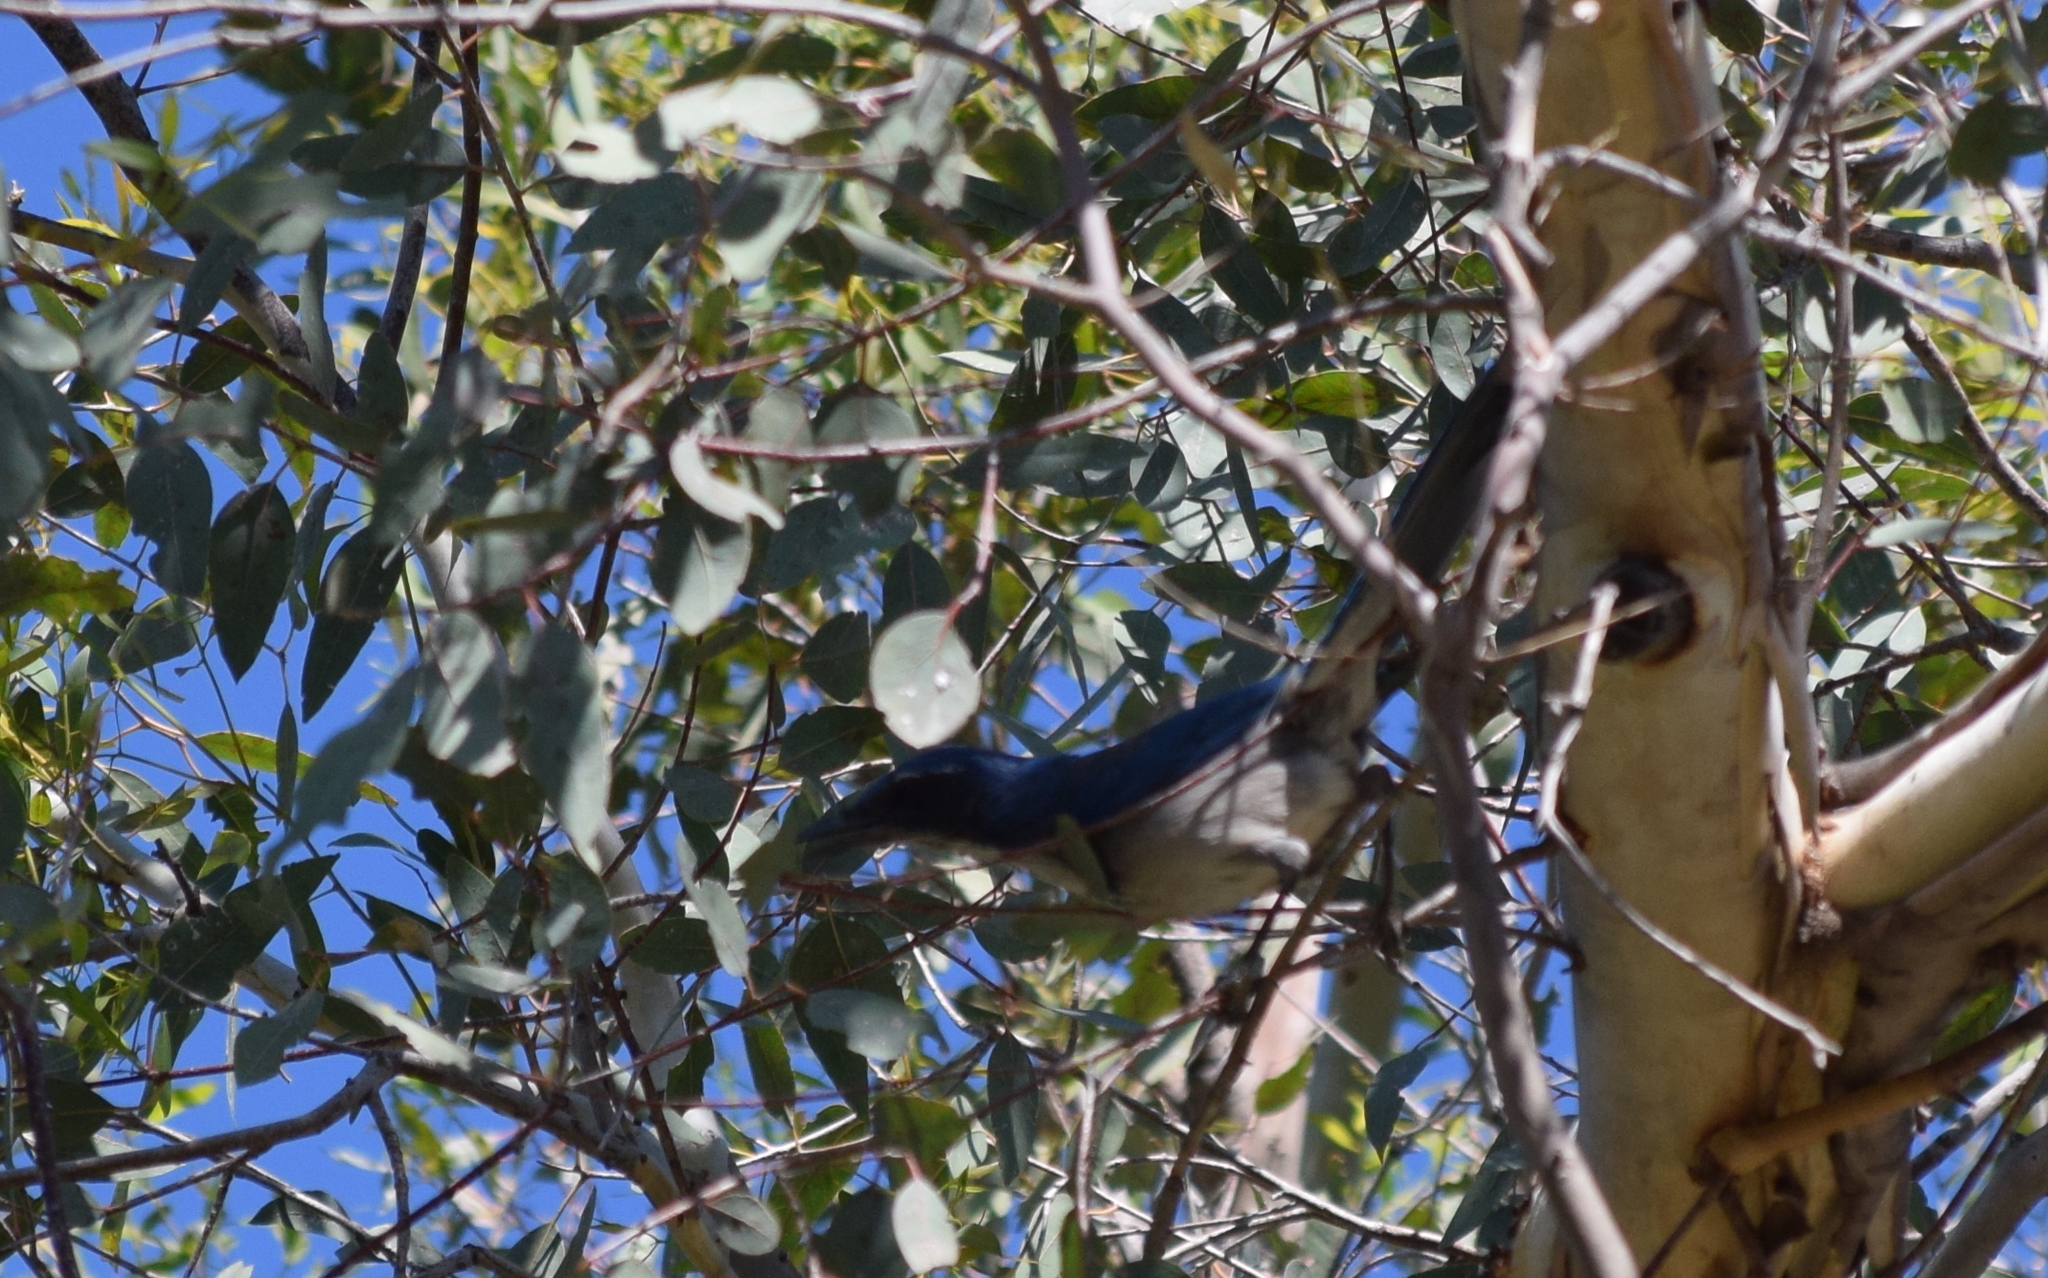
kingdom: Animalia
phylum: Chordata
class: Aves
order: Passeriformes
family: Corvidae
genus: Aphelocoma
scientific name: Aphelocoma californica
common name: California scrub-jay
